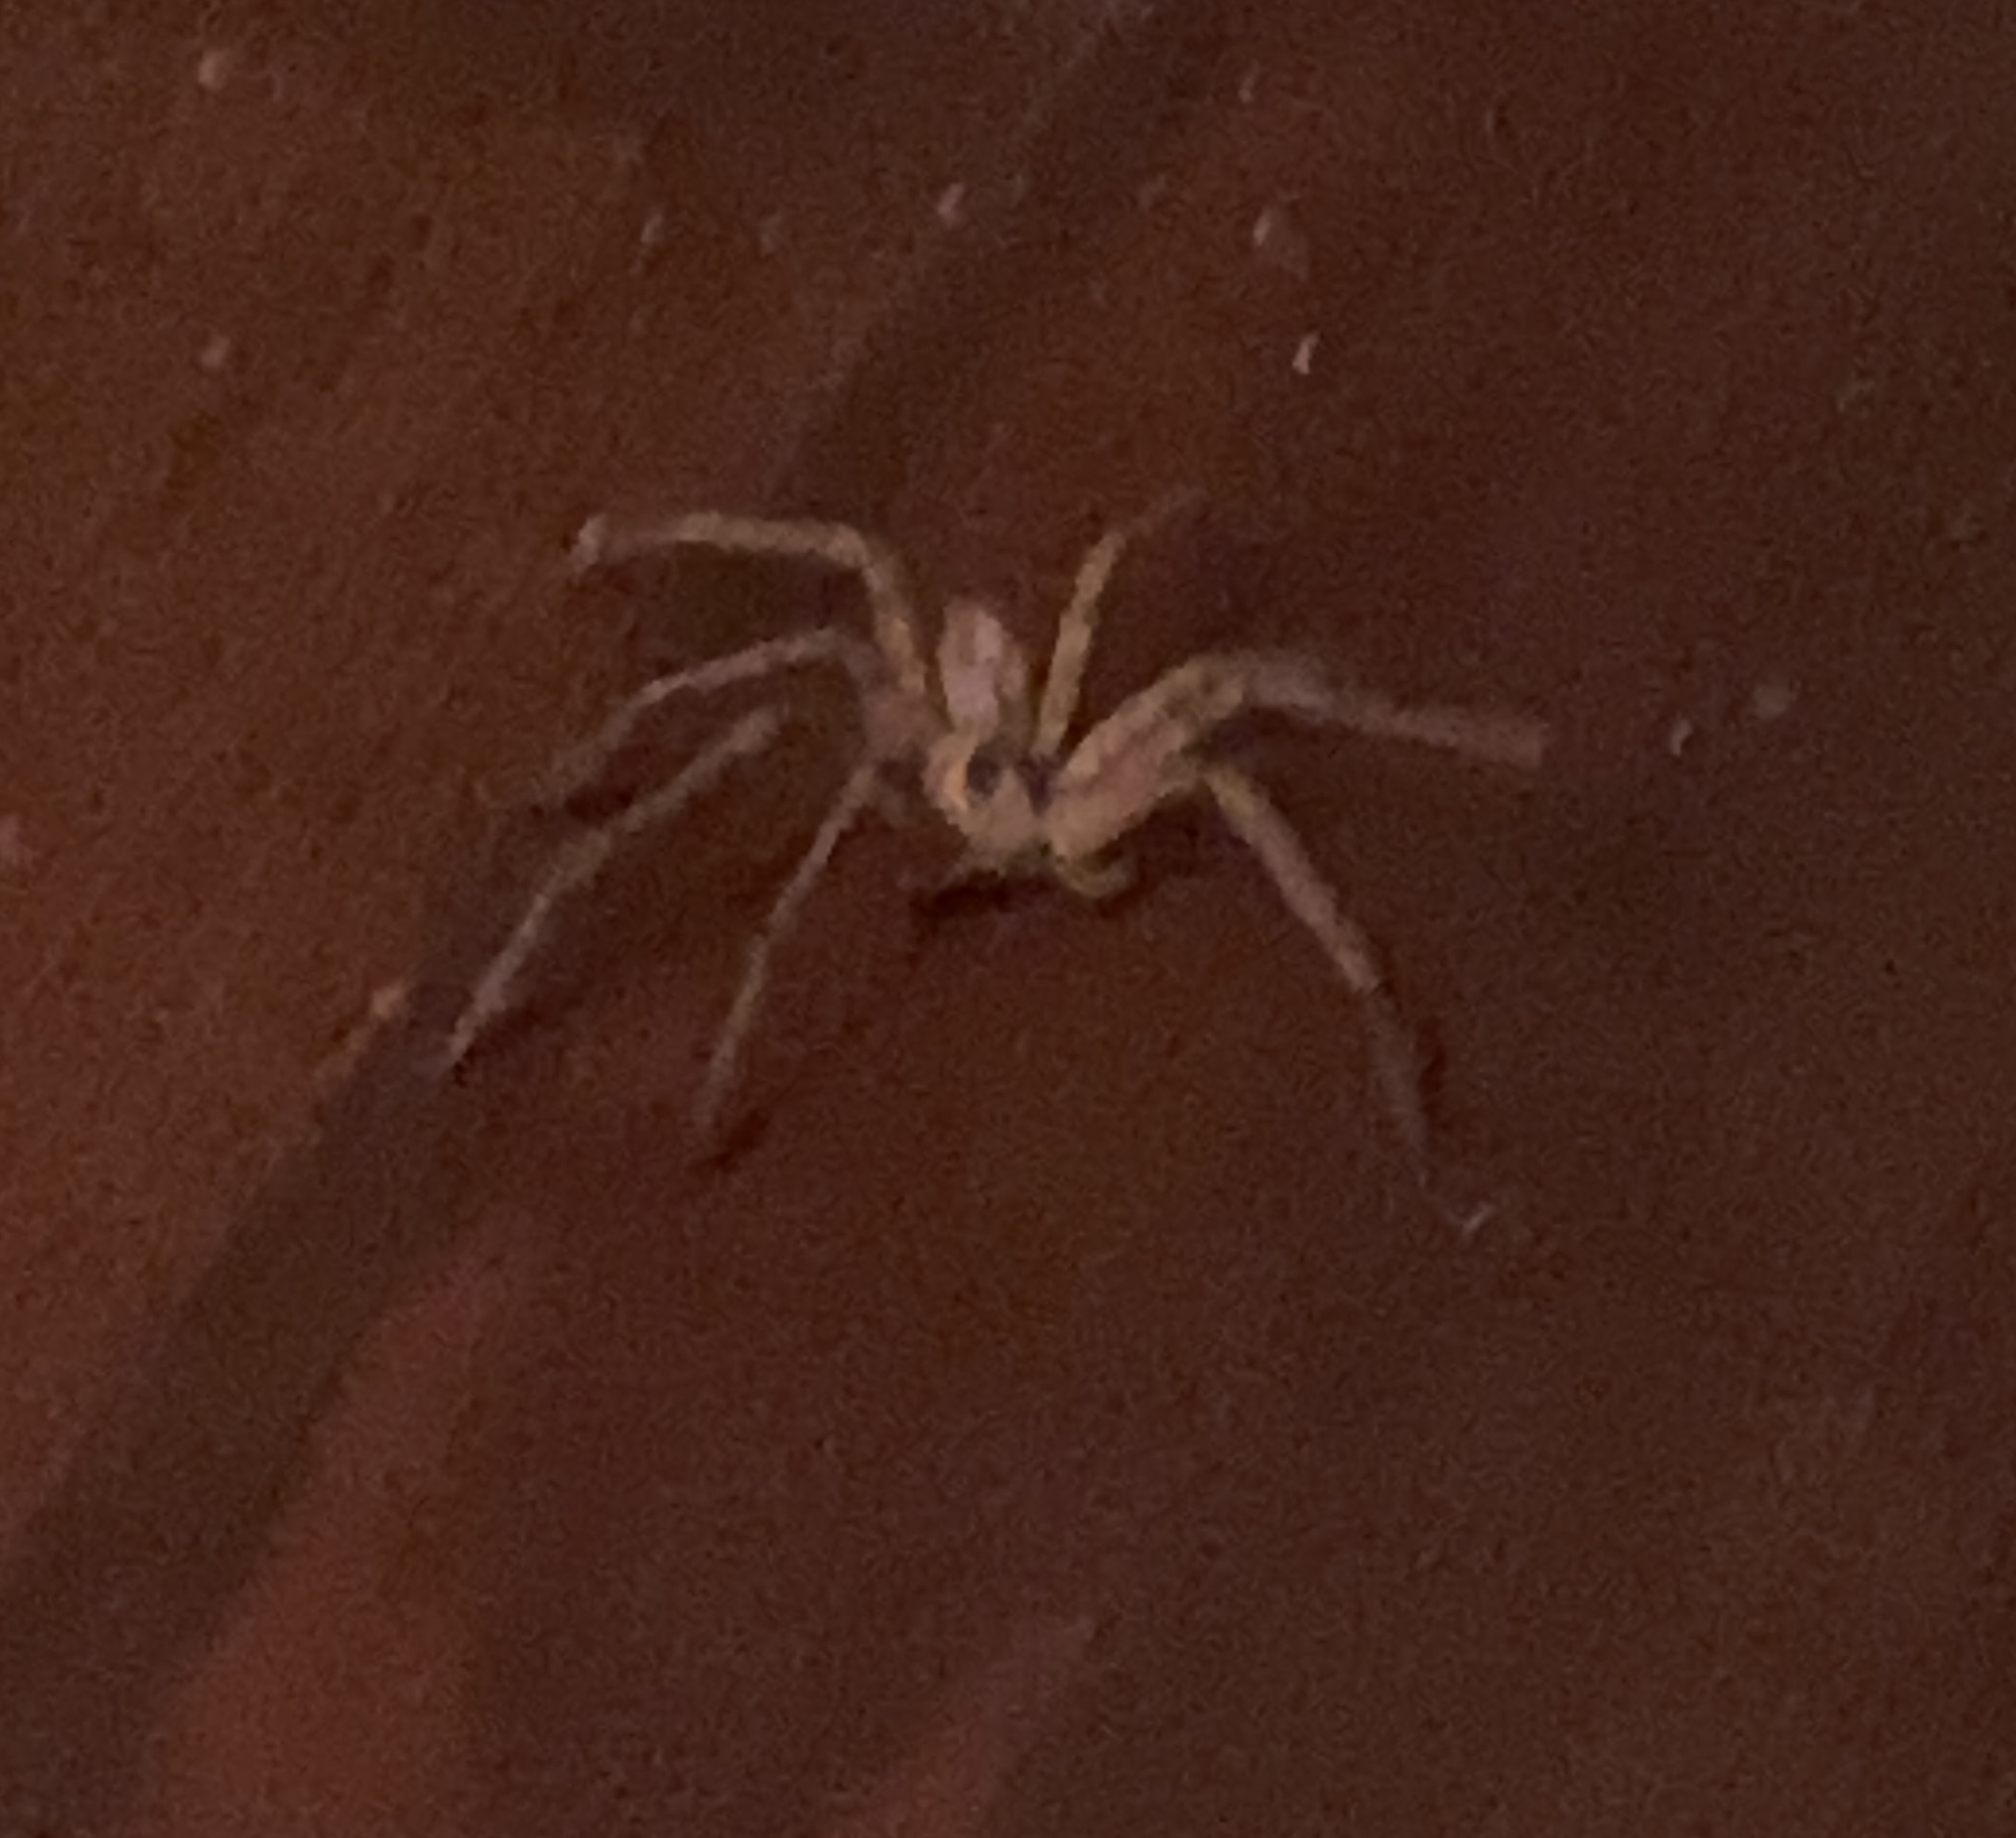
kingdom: Animalia
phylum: Arthropoda
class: Arachnida
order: Araneae
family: Sparassidae
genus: Heteropoda
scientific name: Heteropoda venatoria
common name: Huntsman spider
